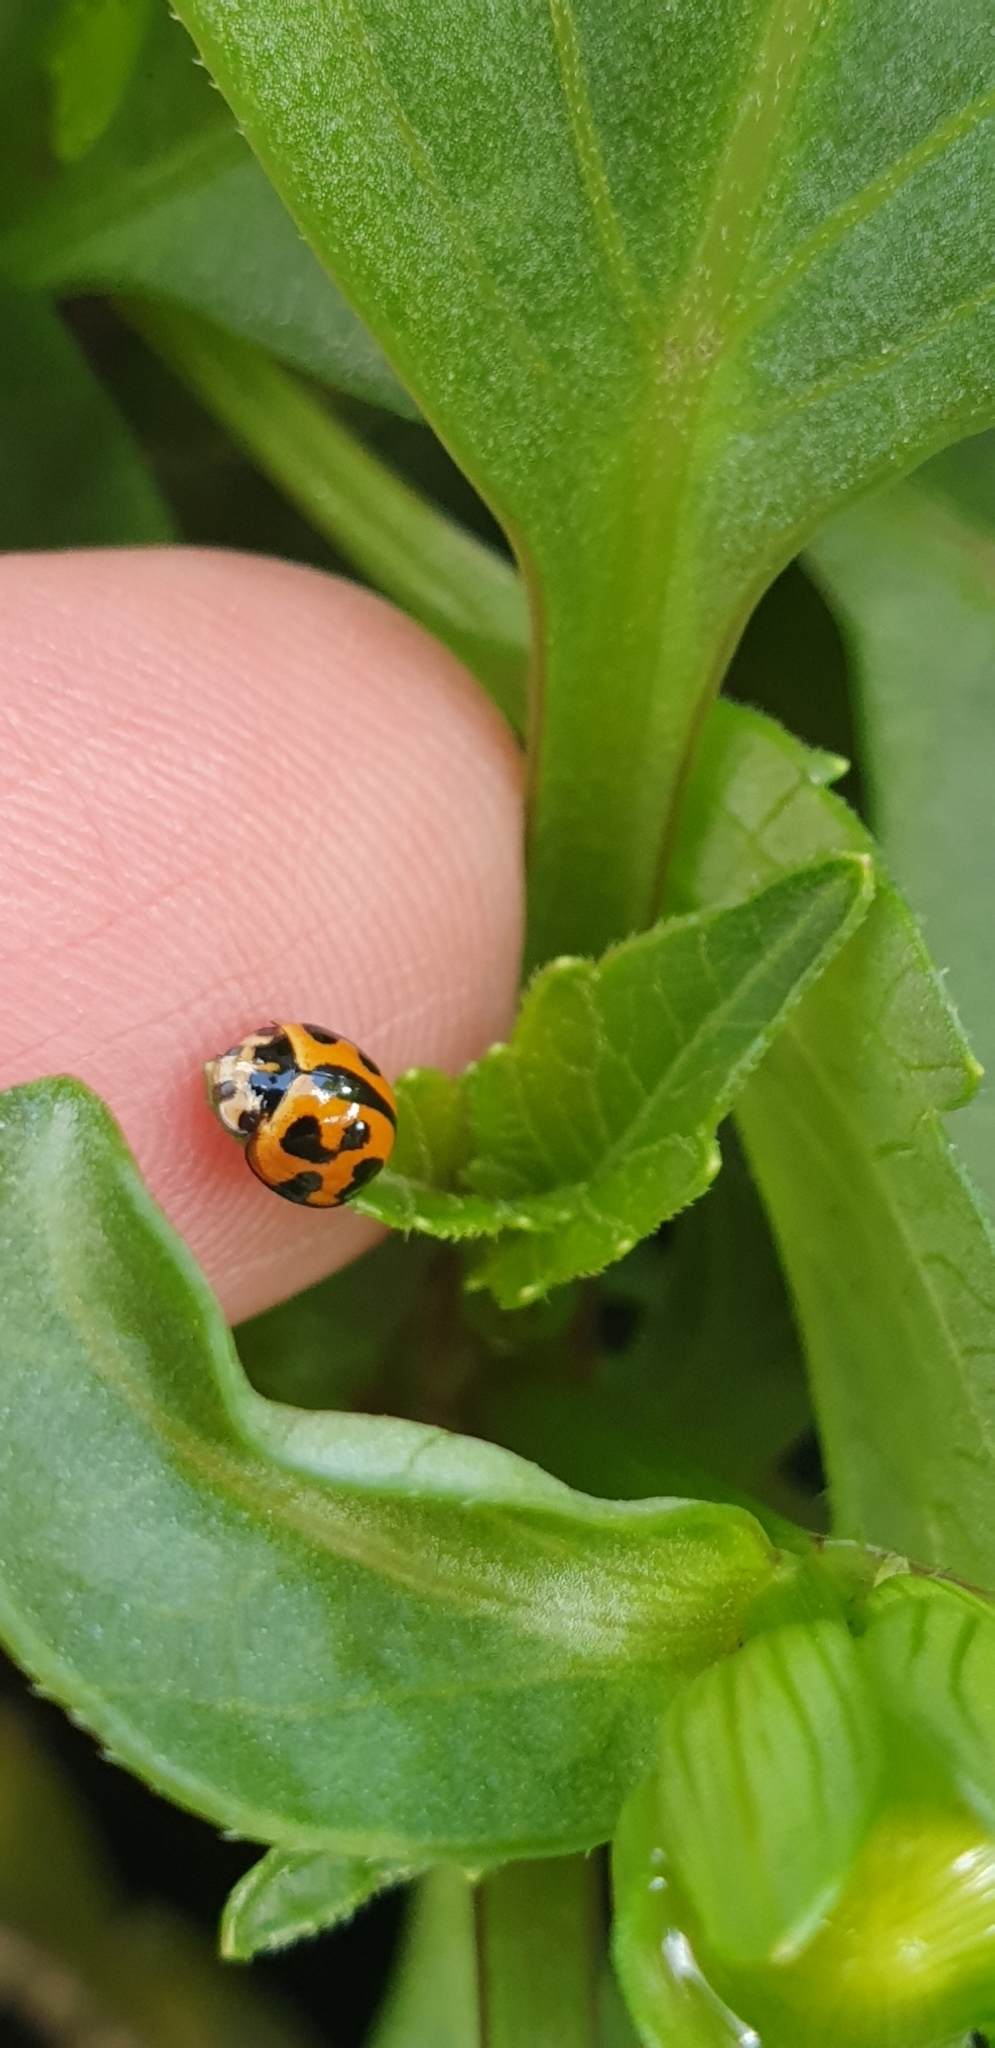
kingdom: Animalia
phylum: Arthropoda
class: Insecta
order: Coleoptera
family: Coccinellidae
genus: Coelophora
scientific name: Coelophora inaequalis
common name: Common australian lady beetle
